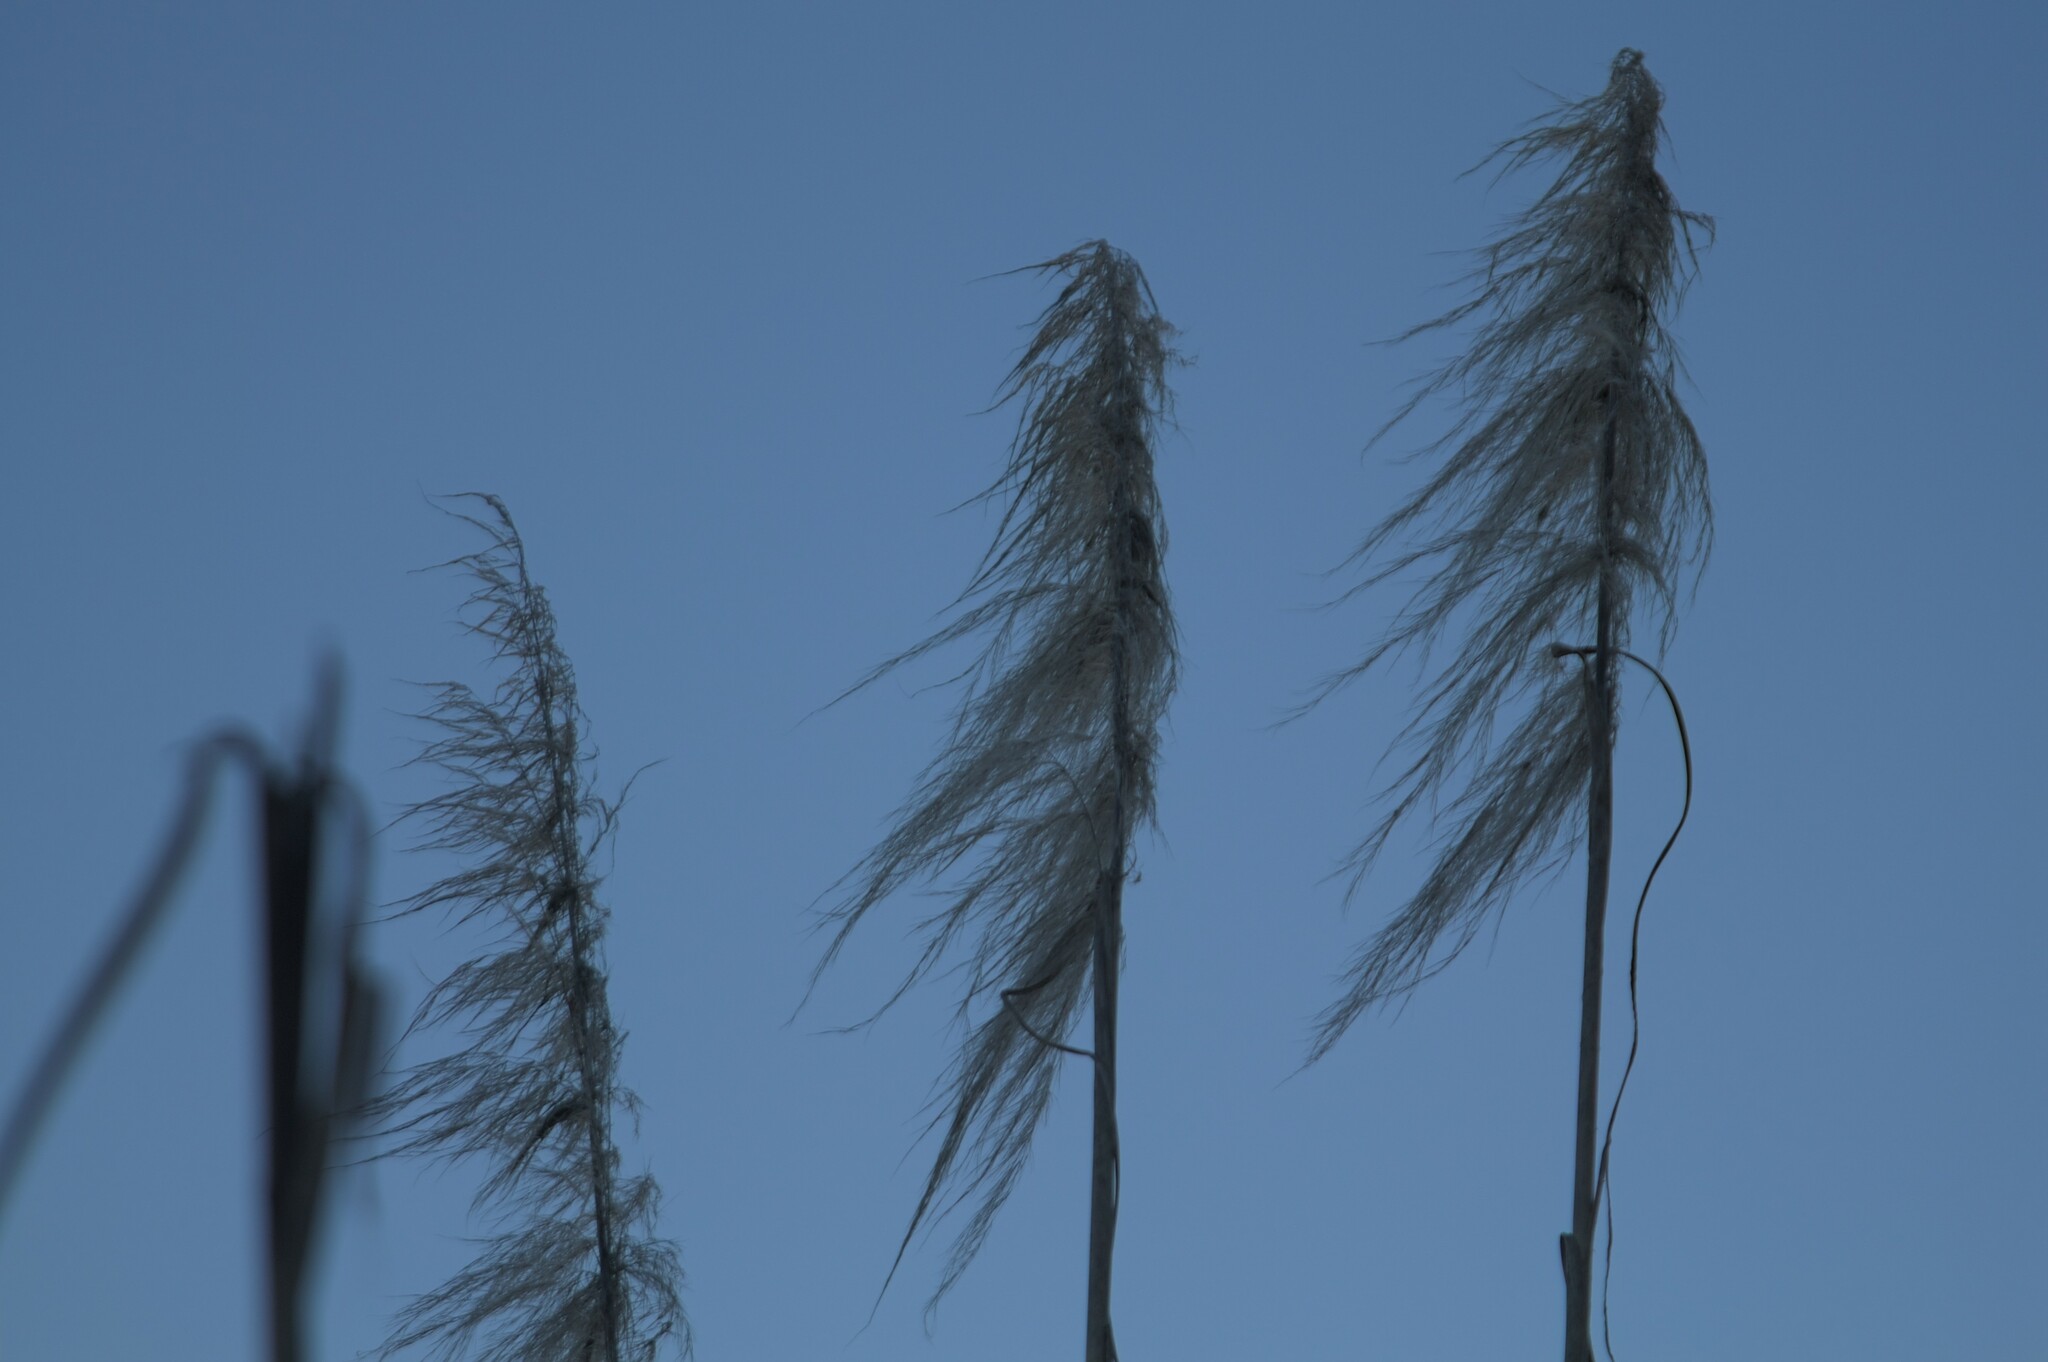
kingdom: Plantae
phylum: Tracheophyta
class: Liliopsida
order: Poales
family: Poaceae
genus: Cortaderia
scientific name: Cortaderia selloana
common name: Uruguayan pampas grass
